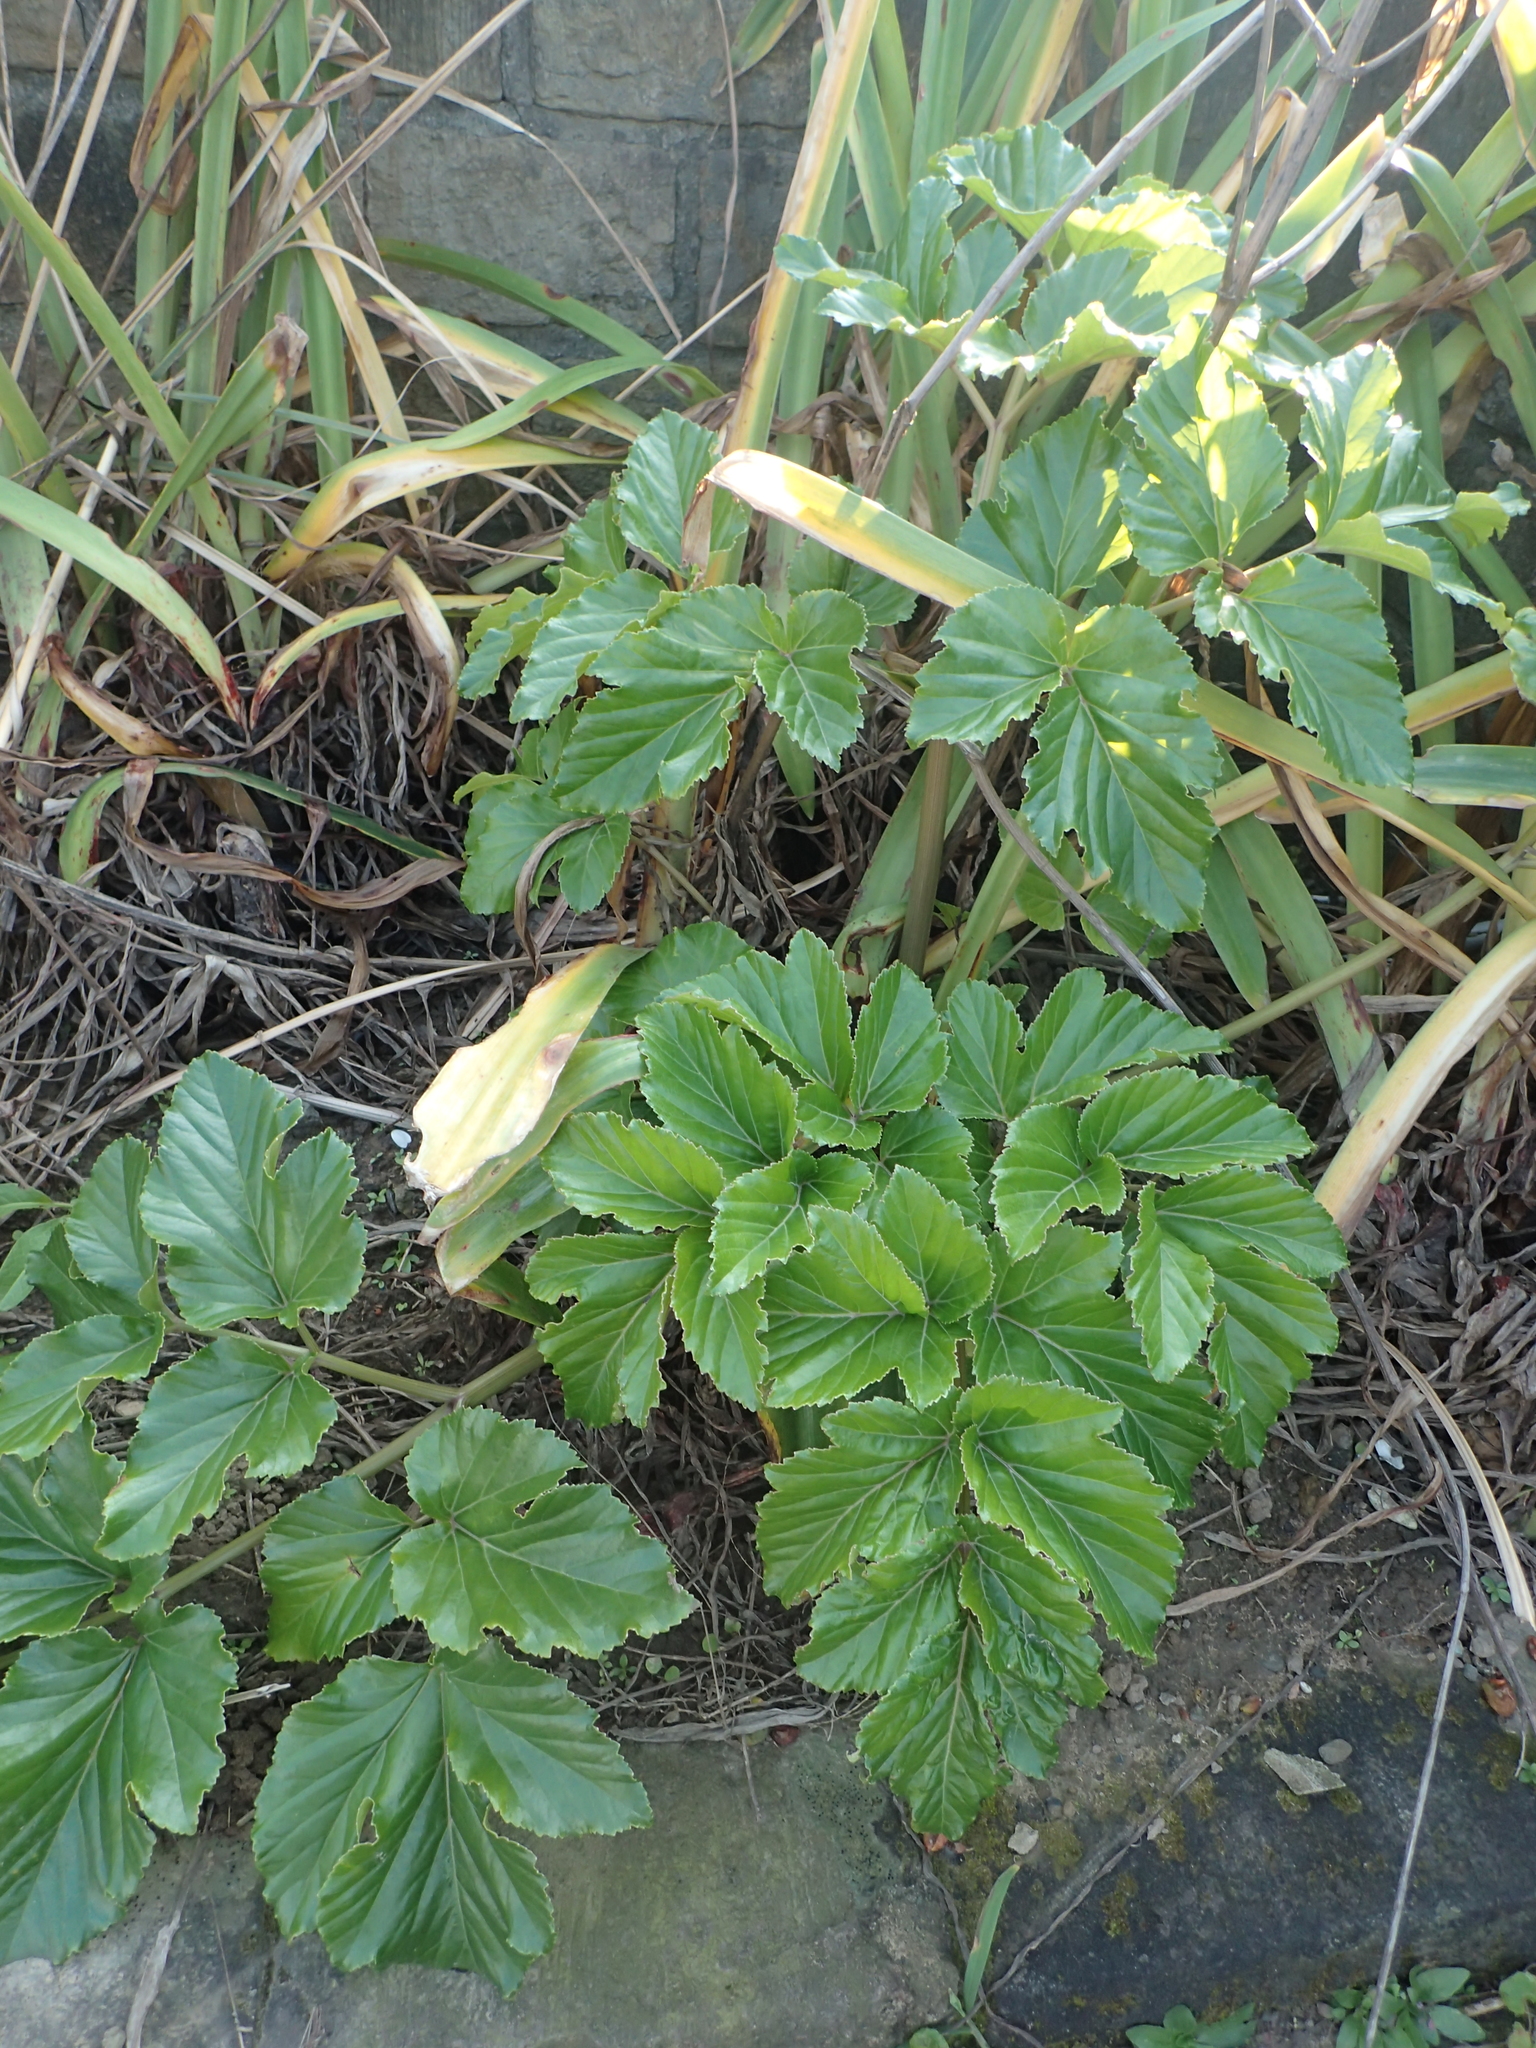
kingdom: Plantae
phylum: Tracheophyta
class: Magnoliopsida
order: Apiales
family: Apiaceae
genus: Angelica
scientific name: Angelica hirsutiflora
